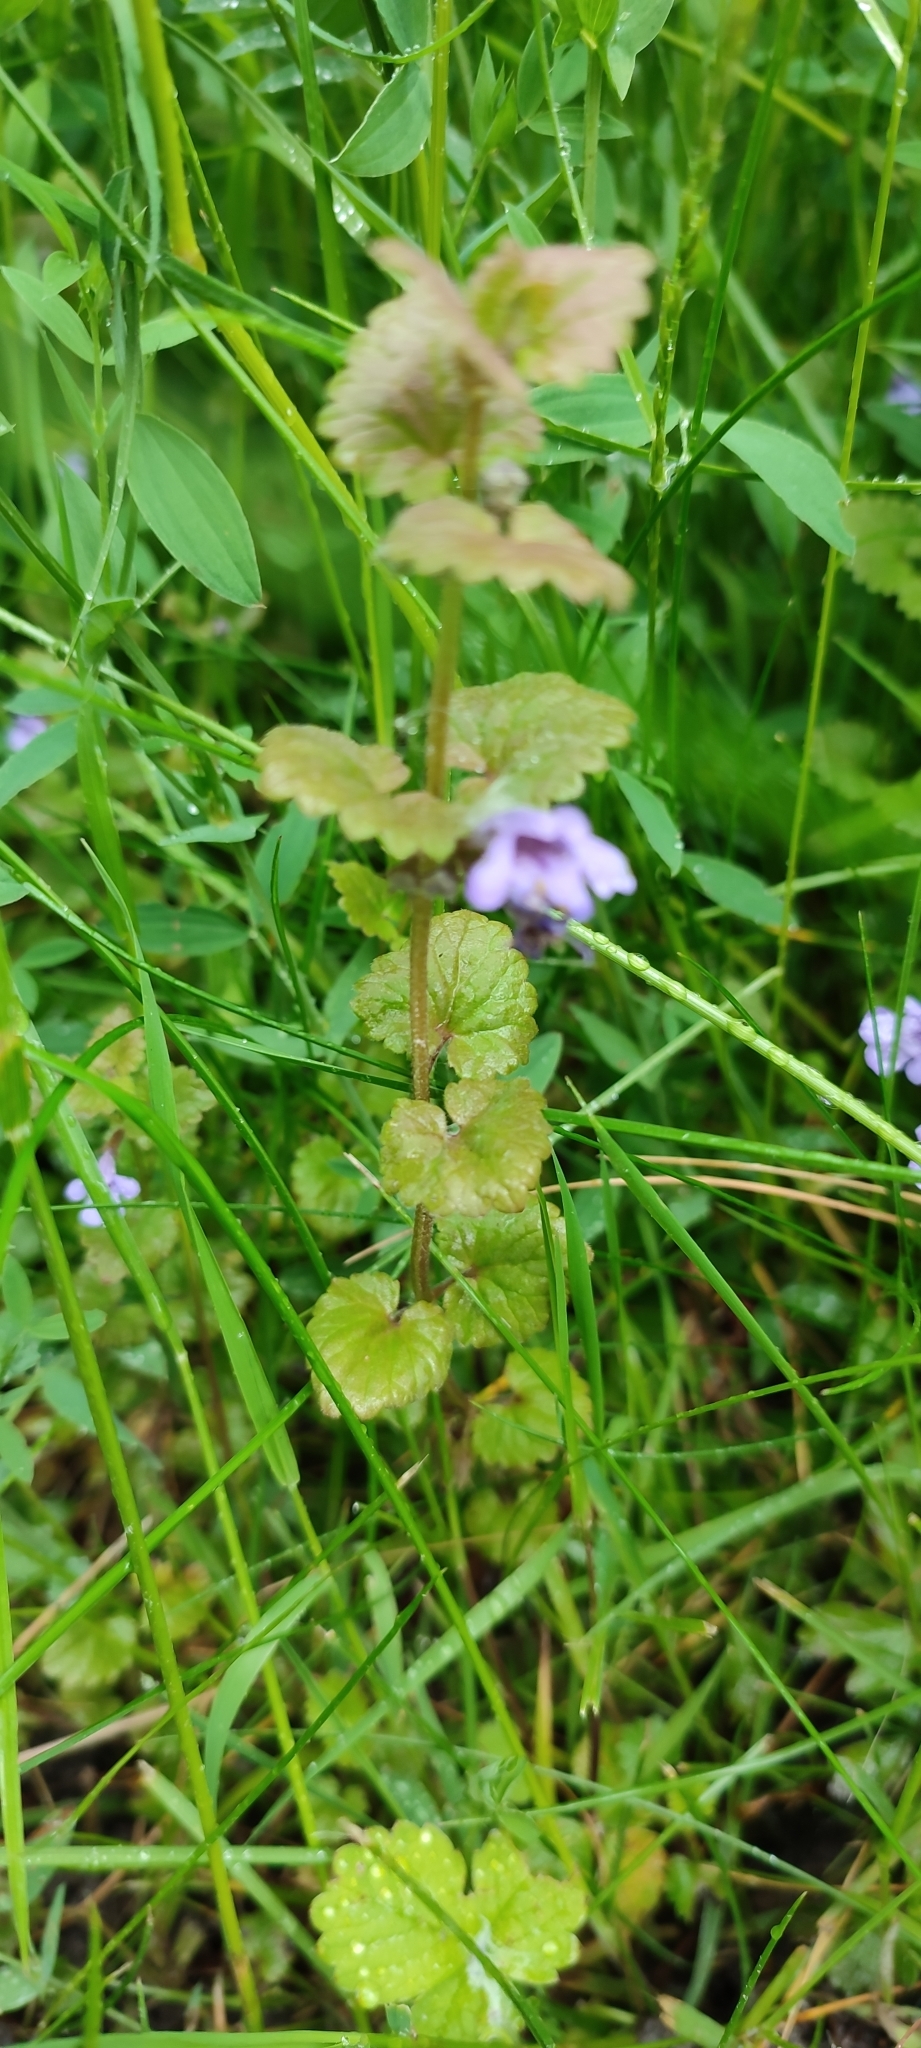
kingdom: Plantae
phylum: Tracheophyta
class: Magnoliopsida
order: Lamiales
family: Lamiaceae
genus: Glechoma
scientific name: Glechoma hederacea
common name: Ground ivy
